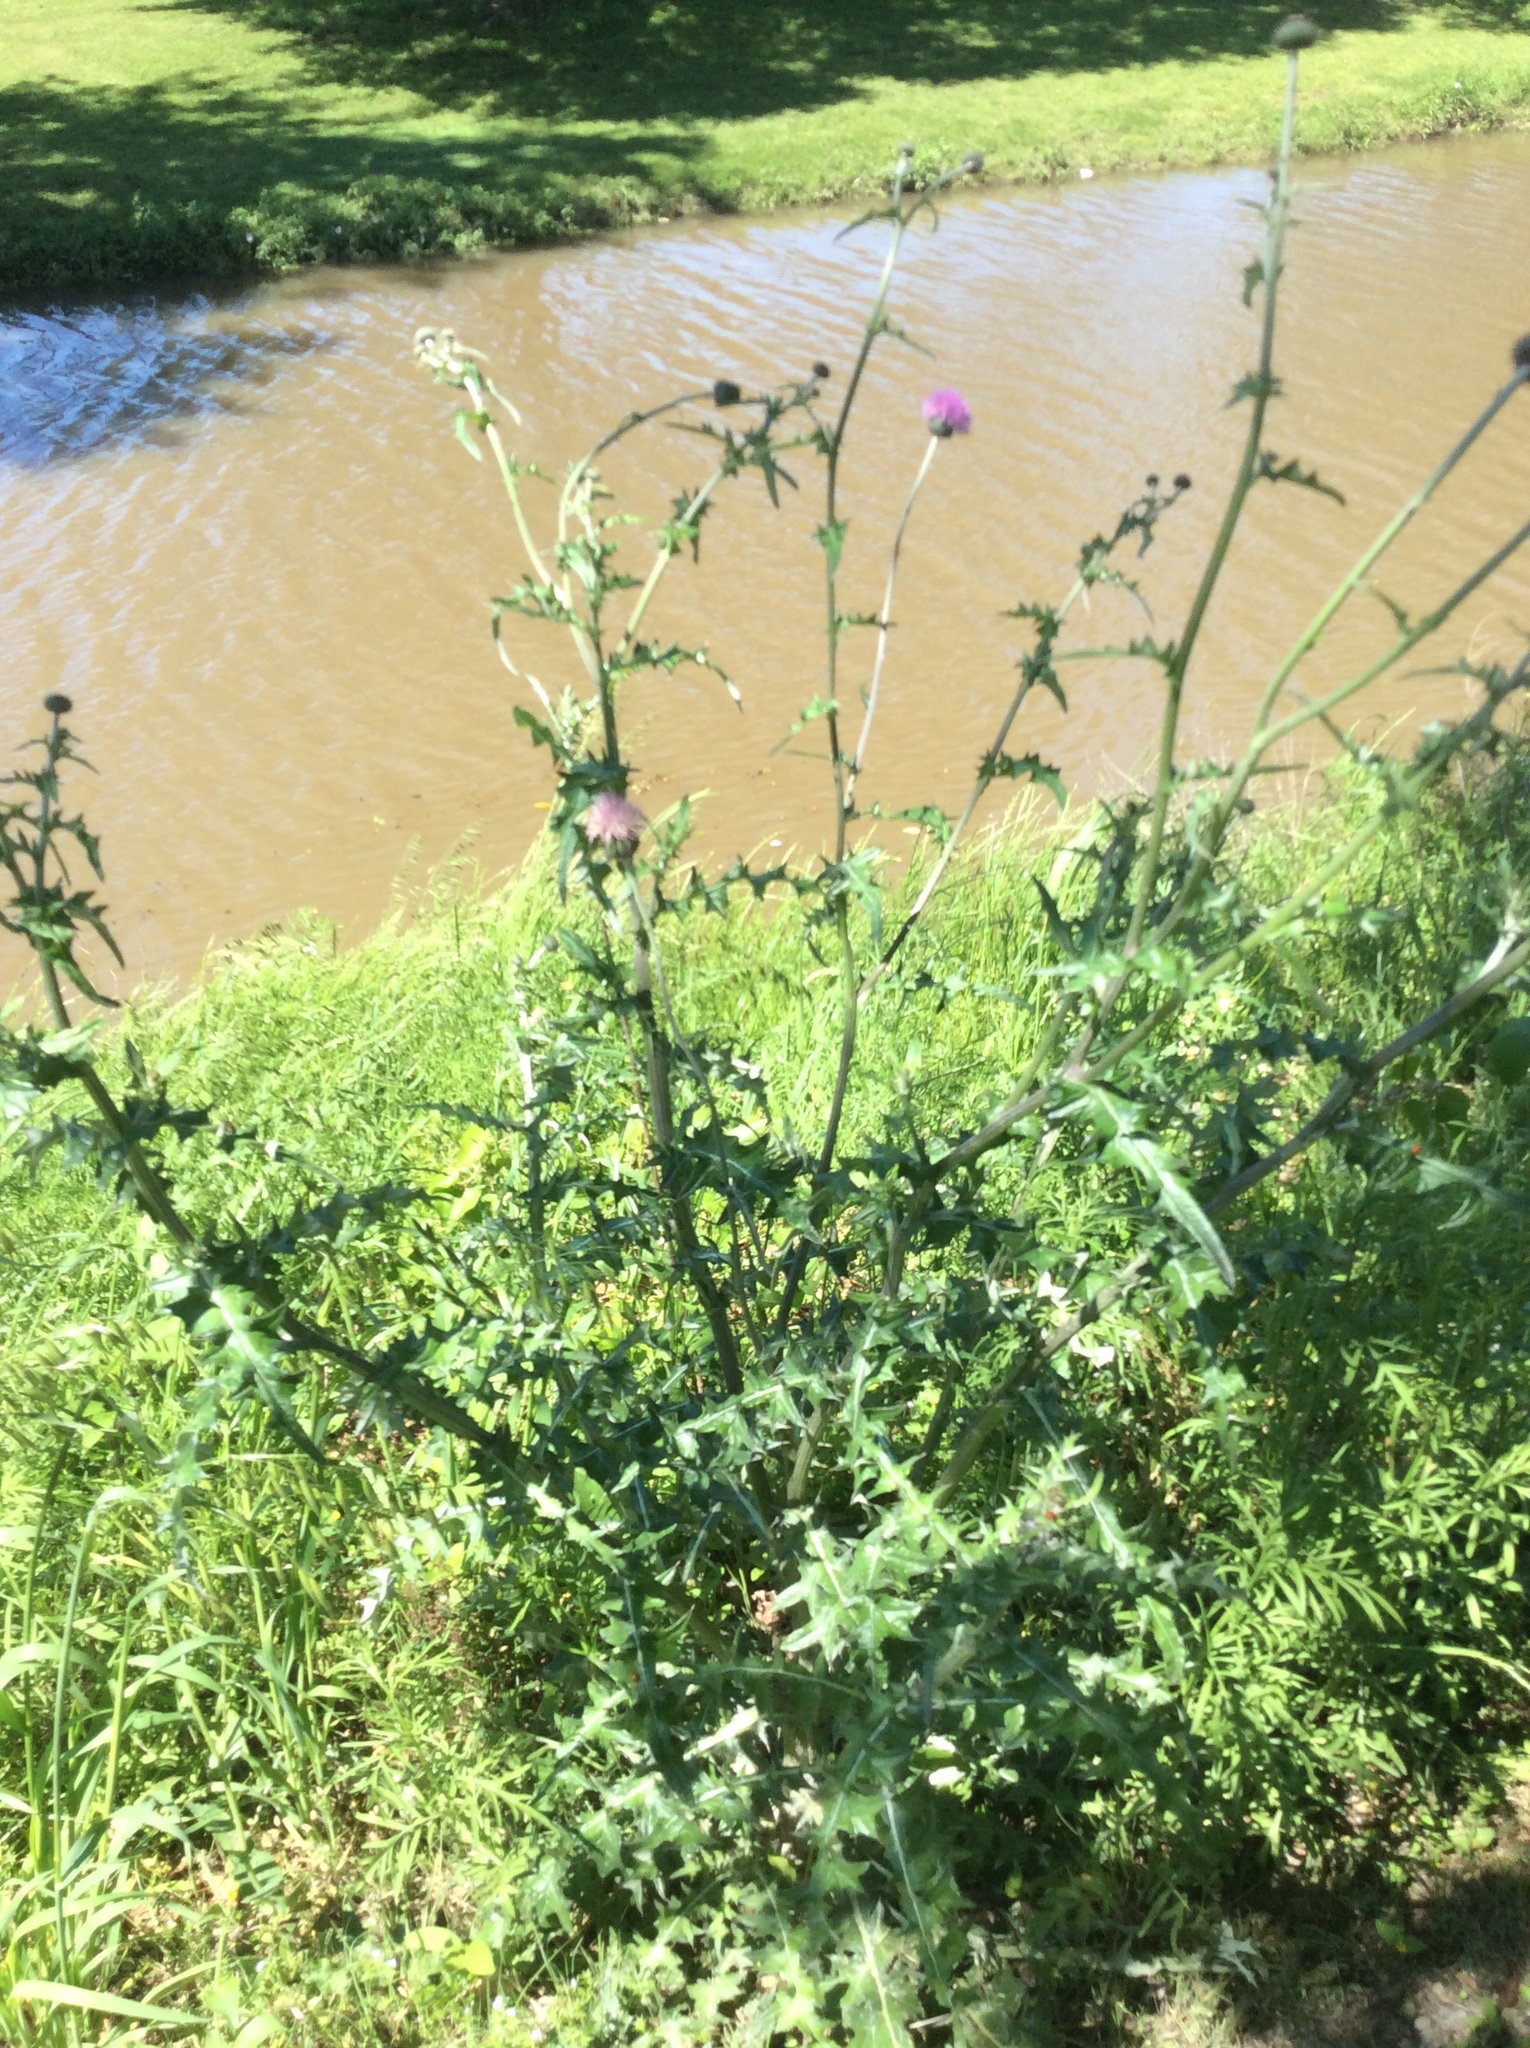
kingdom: Plantae
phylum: Tracheophyta
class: Magnoliopsida
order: Asterales
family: Asteraceae
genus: Cirsium
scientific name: Cirsium texanum
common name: Texas purple thistle
